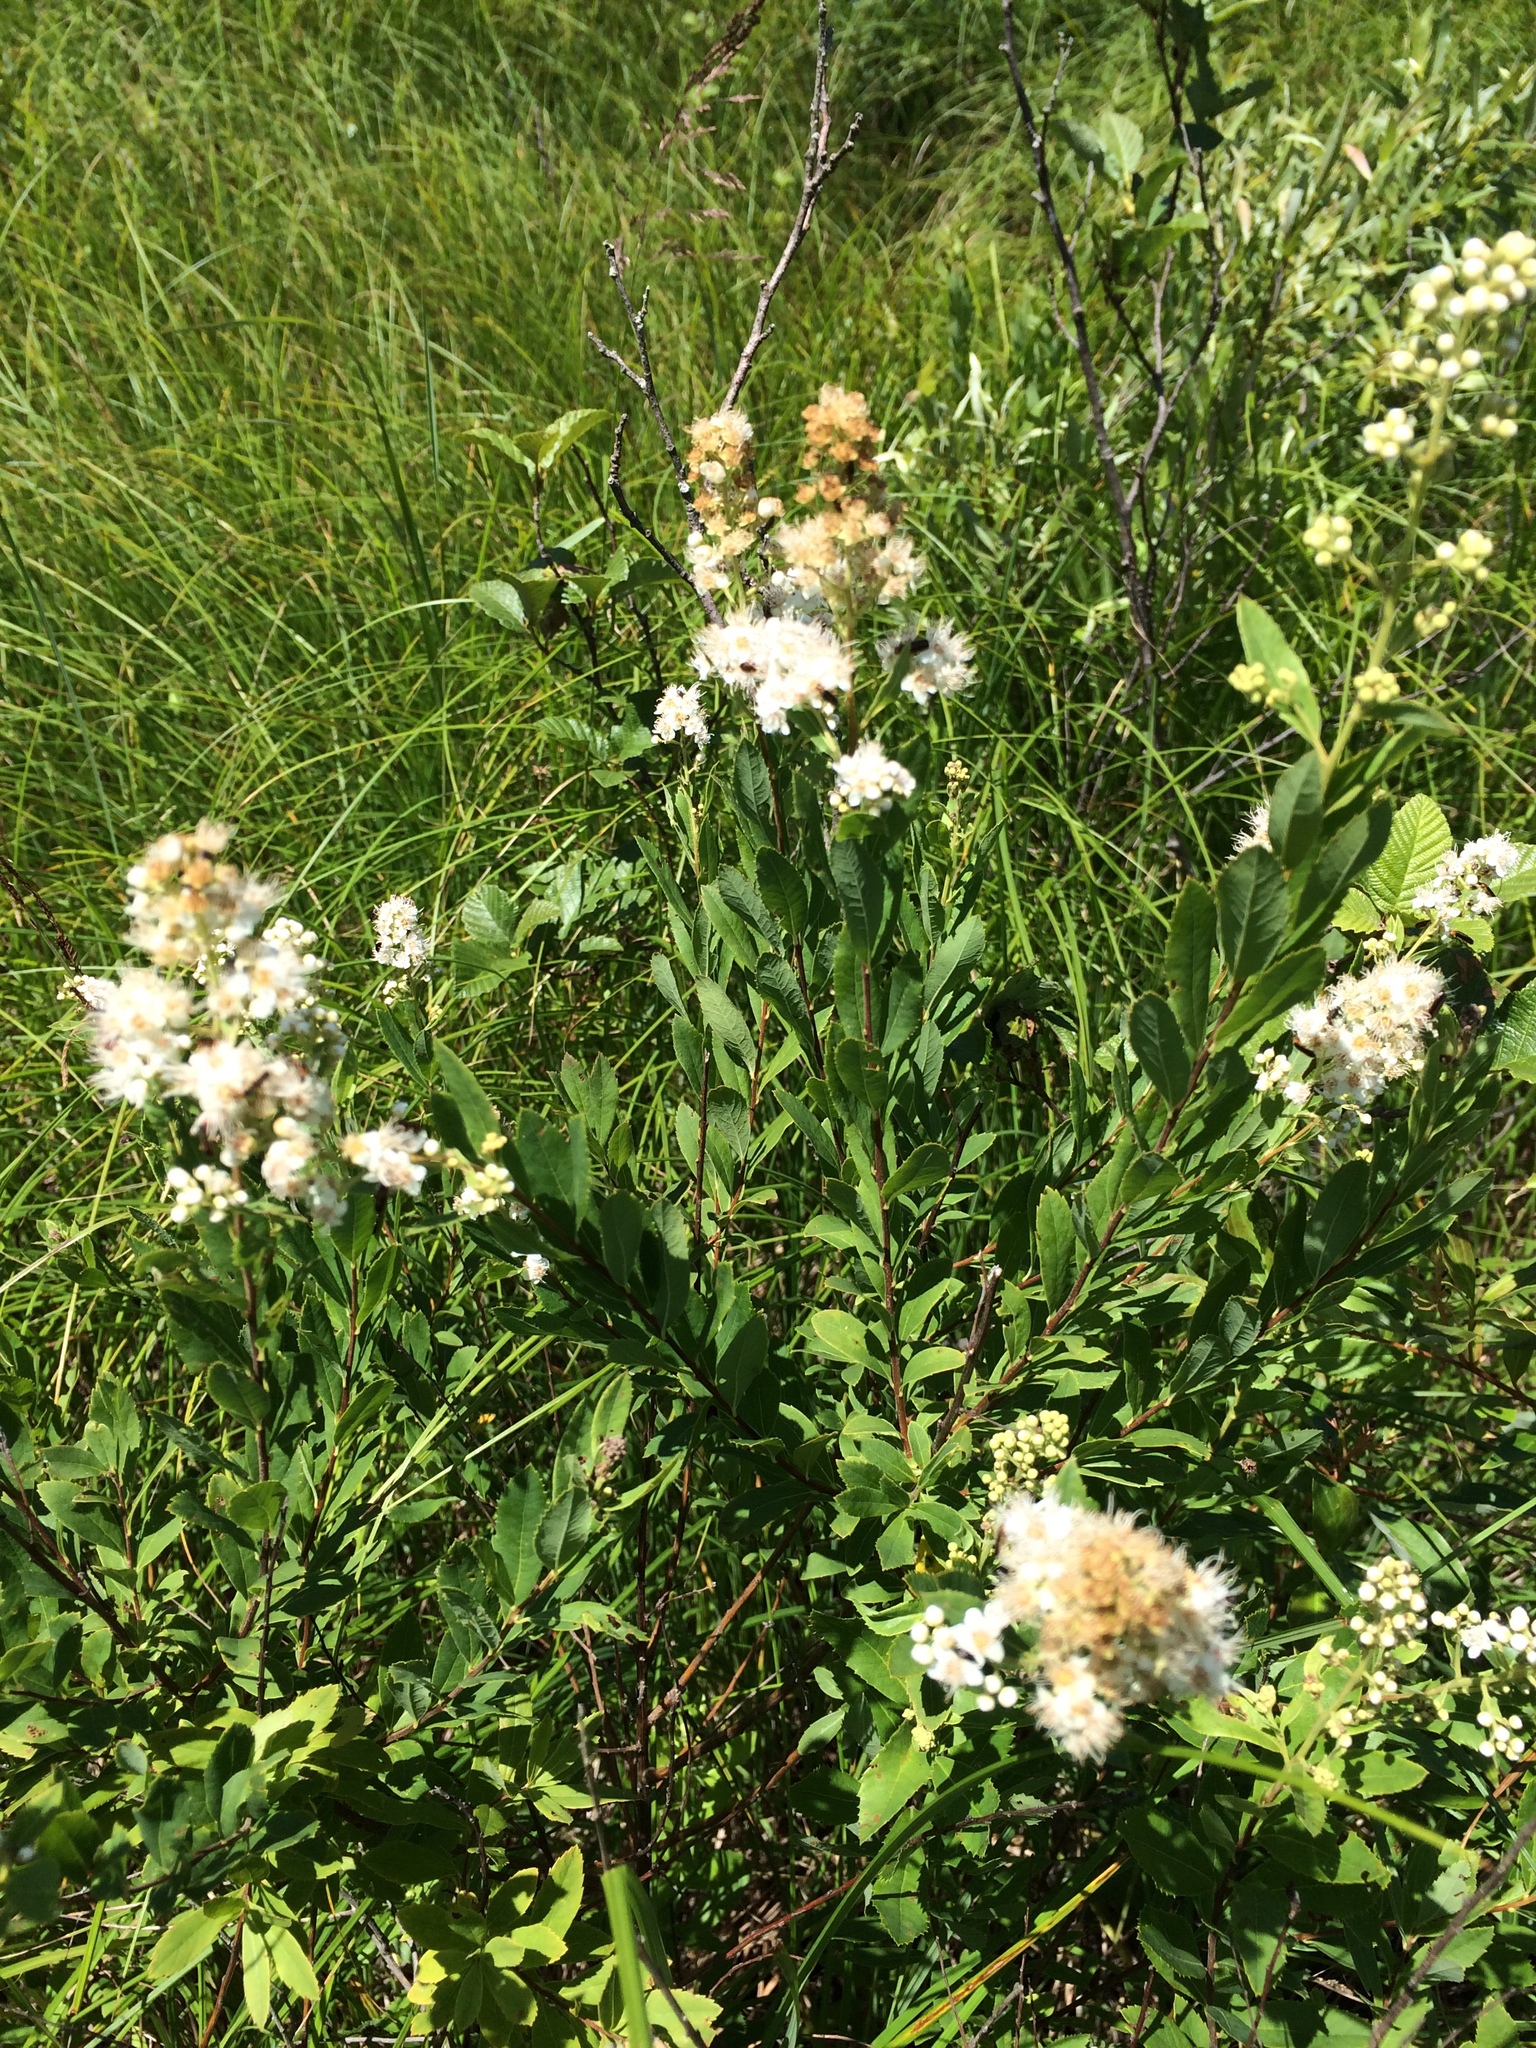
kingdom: Plantae
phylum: Tracheophyta
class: Magnoliopsida
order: Rosales
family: Rosaceae
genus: Spiraea
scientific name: Spiraea alba
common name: Pale bridewort
